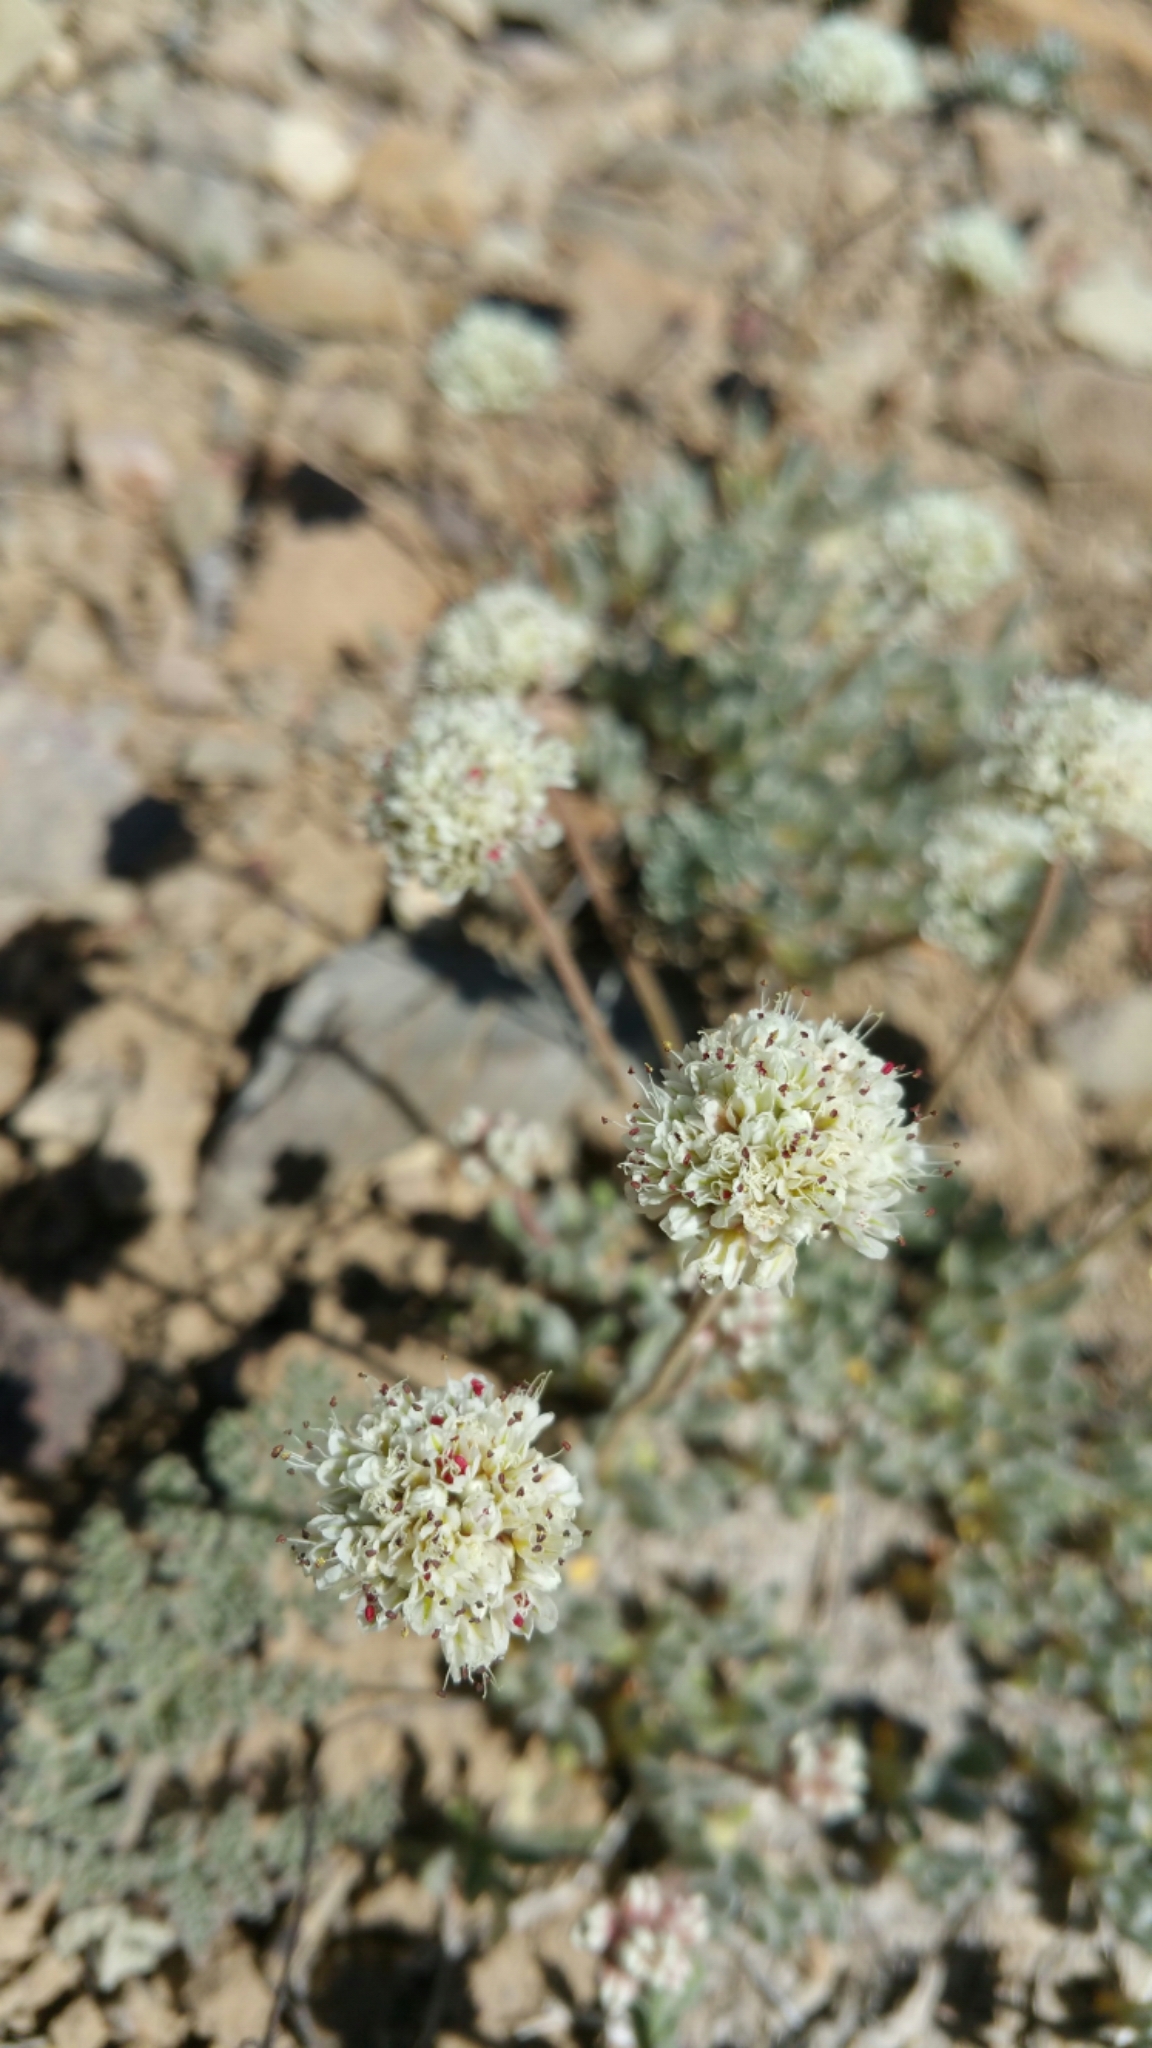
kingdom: Plantae
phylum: Tracheophyta
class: Magnoliopsida
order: Caryophyllales
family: Polygonaceae
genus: Eriogonum
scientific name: Eriogonum gracilipes
